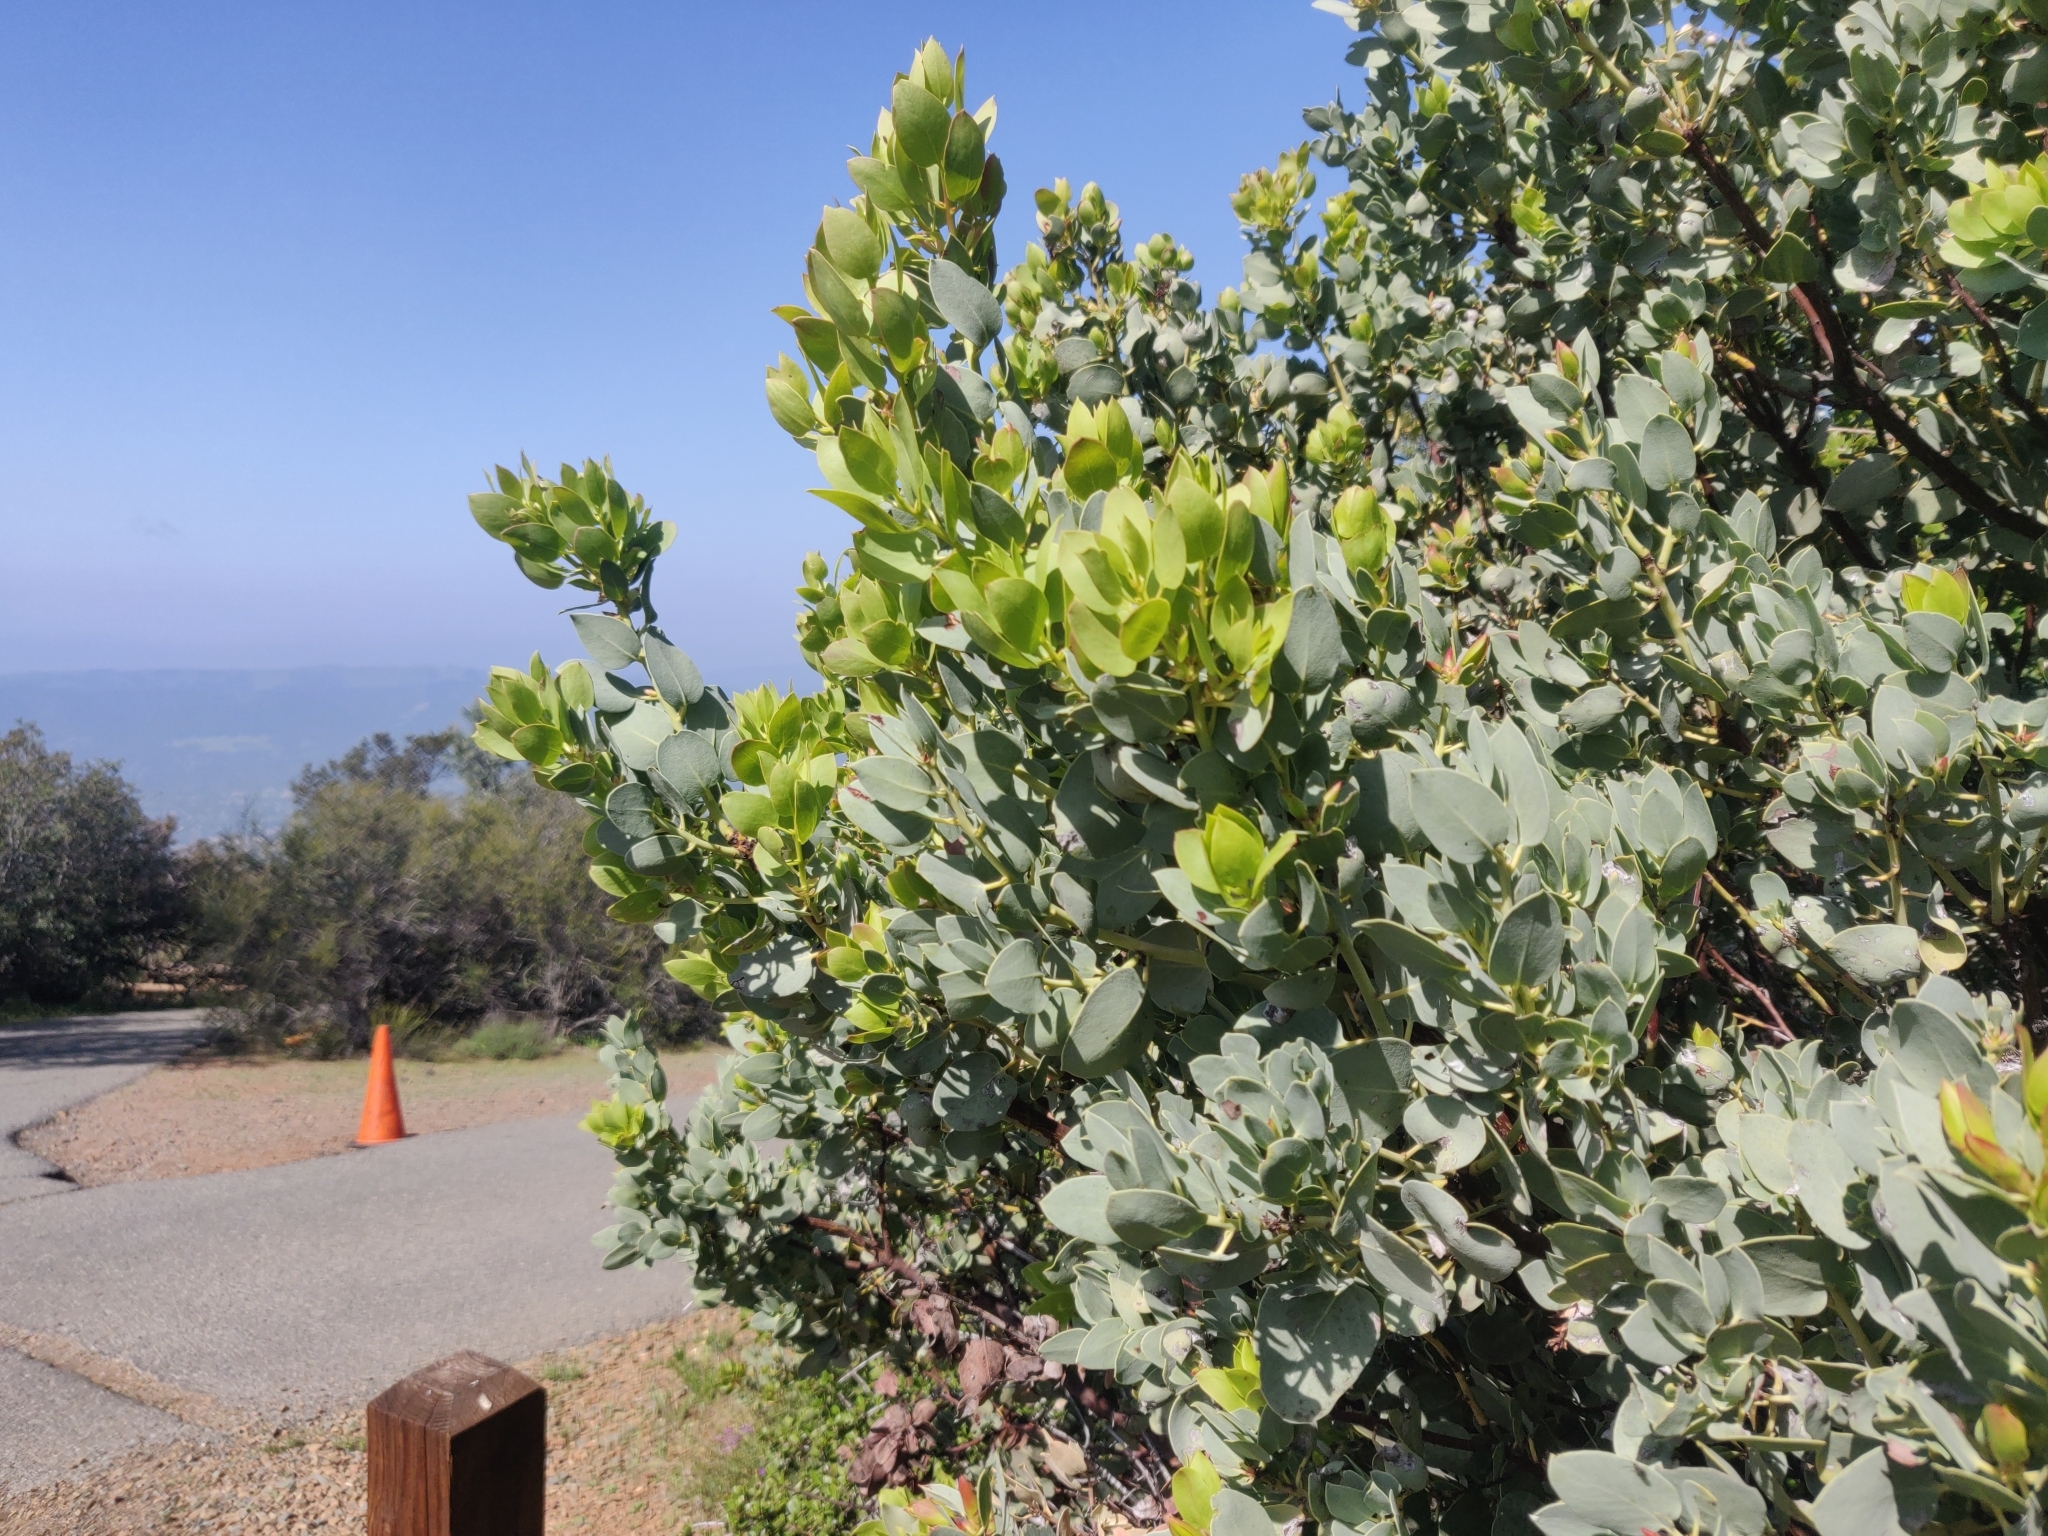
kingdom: Plantae
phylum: Tracheophyta
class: Magnoliopsida
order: Ericales
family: Ericaceae
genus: Arctostaphylos
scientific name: Arctostaphylos glauca
